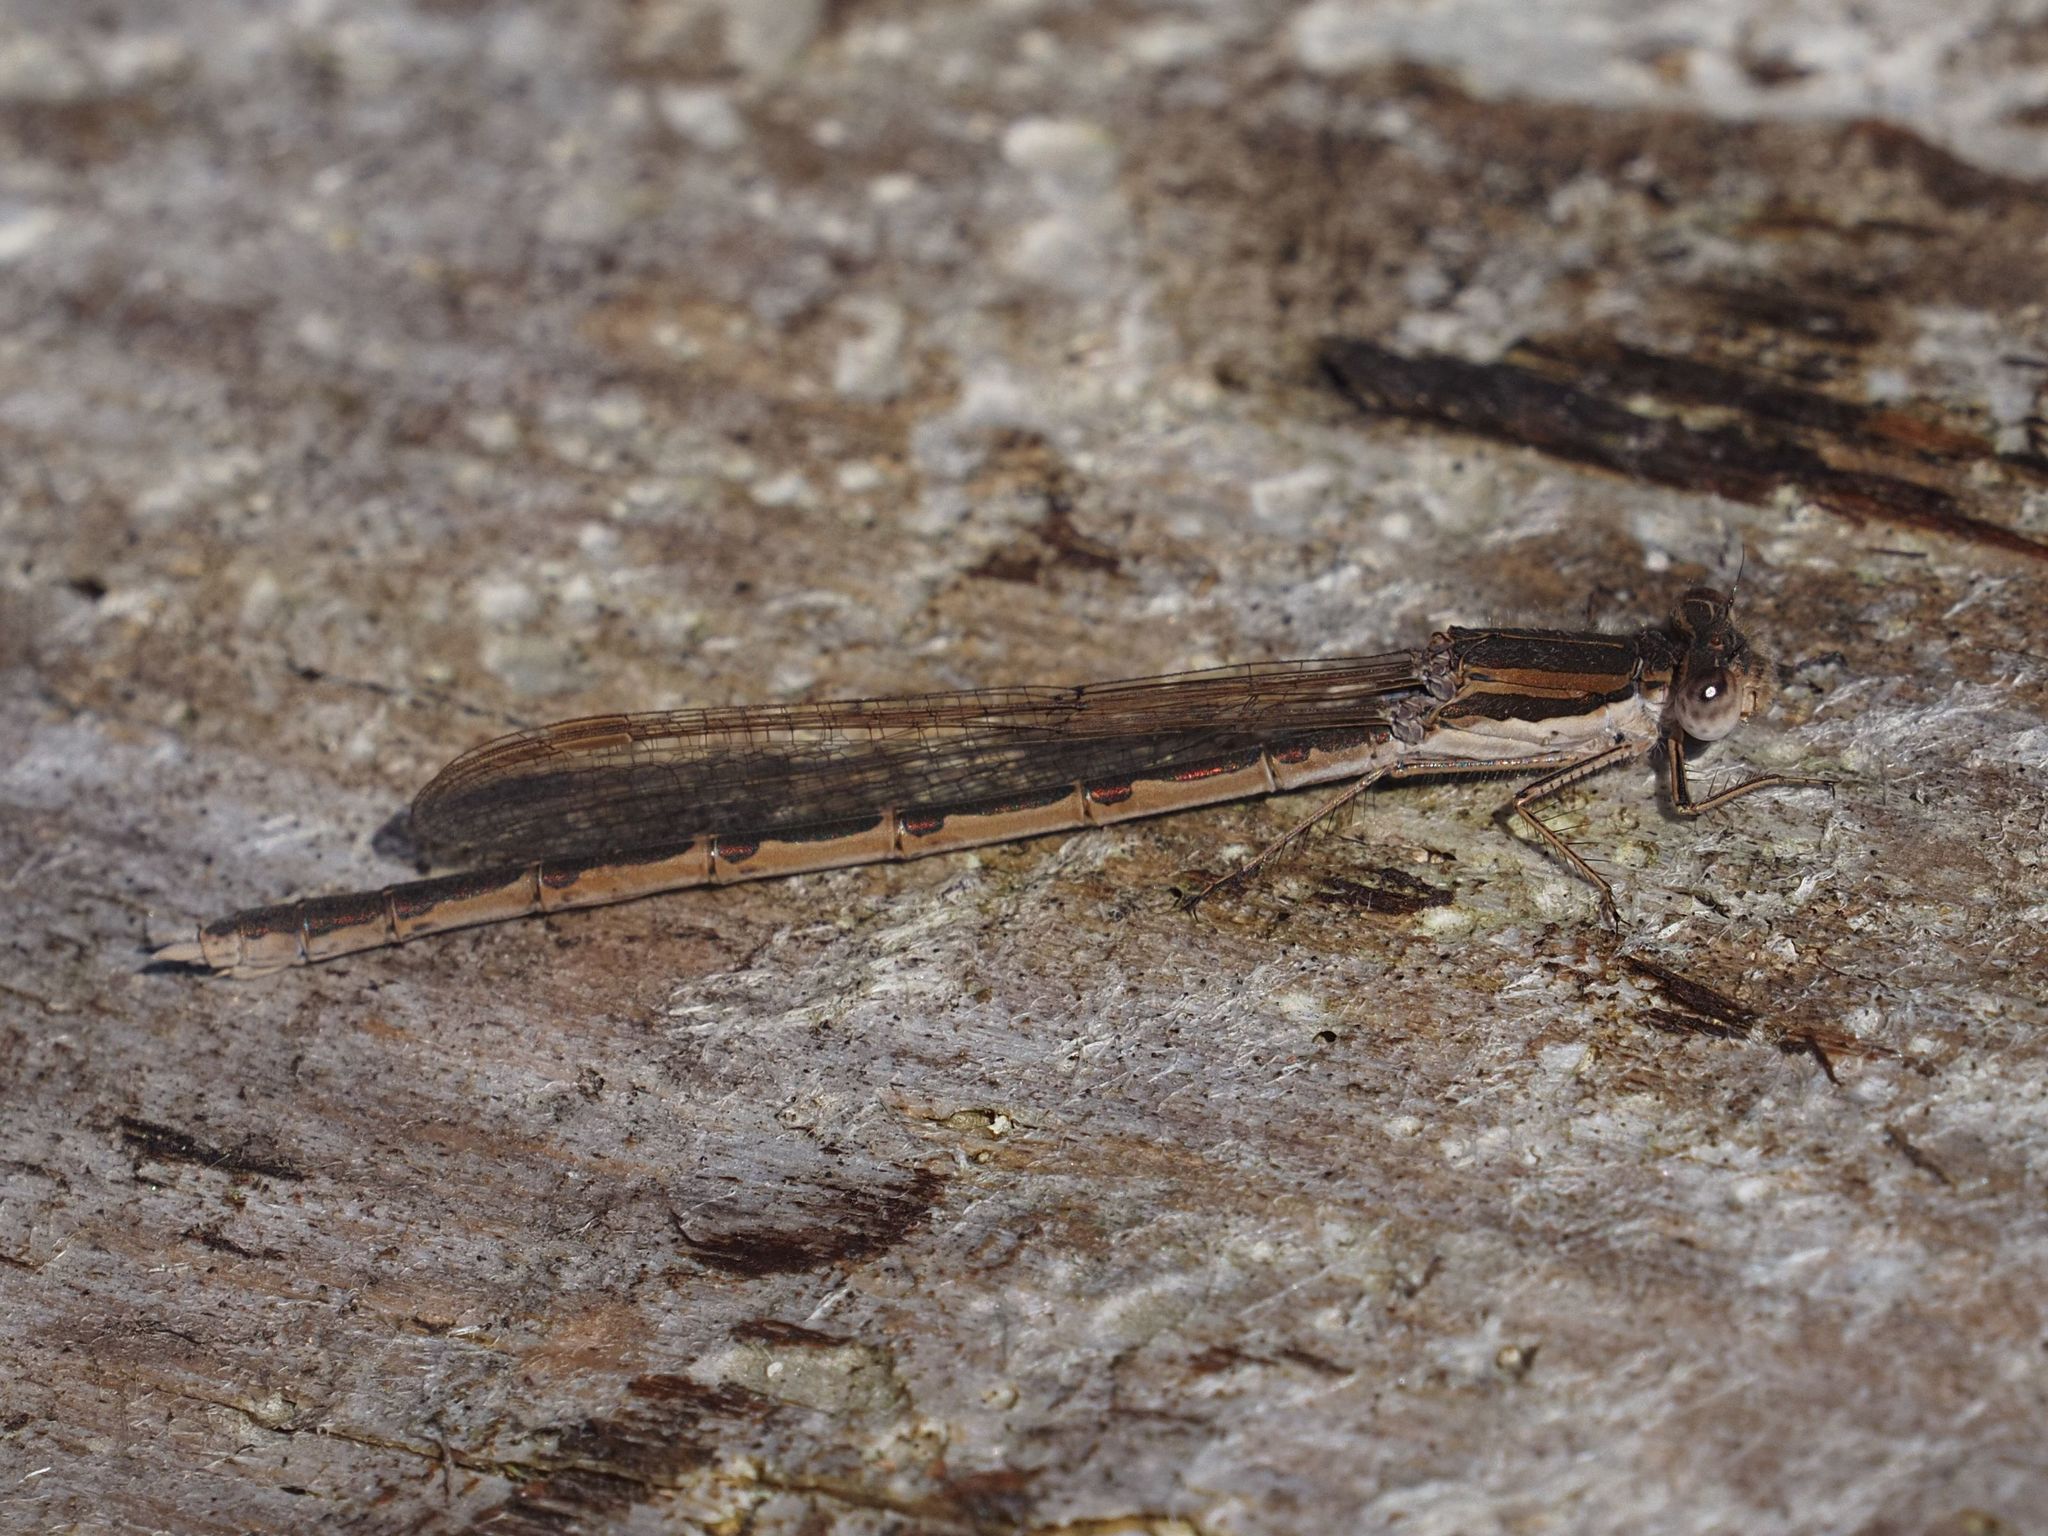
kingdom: Animalia
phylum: Arthropoda
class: Insecta
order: Odonata
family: Lestidae
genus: Sympecma
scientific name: Sympecma fusca
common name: Common winter damsel
